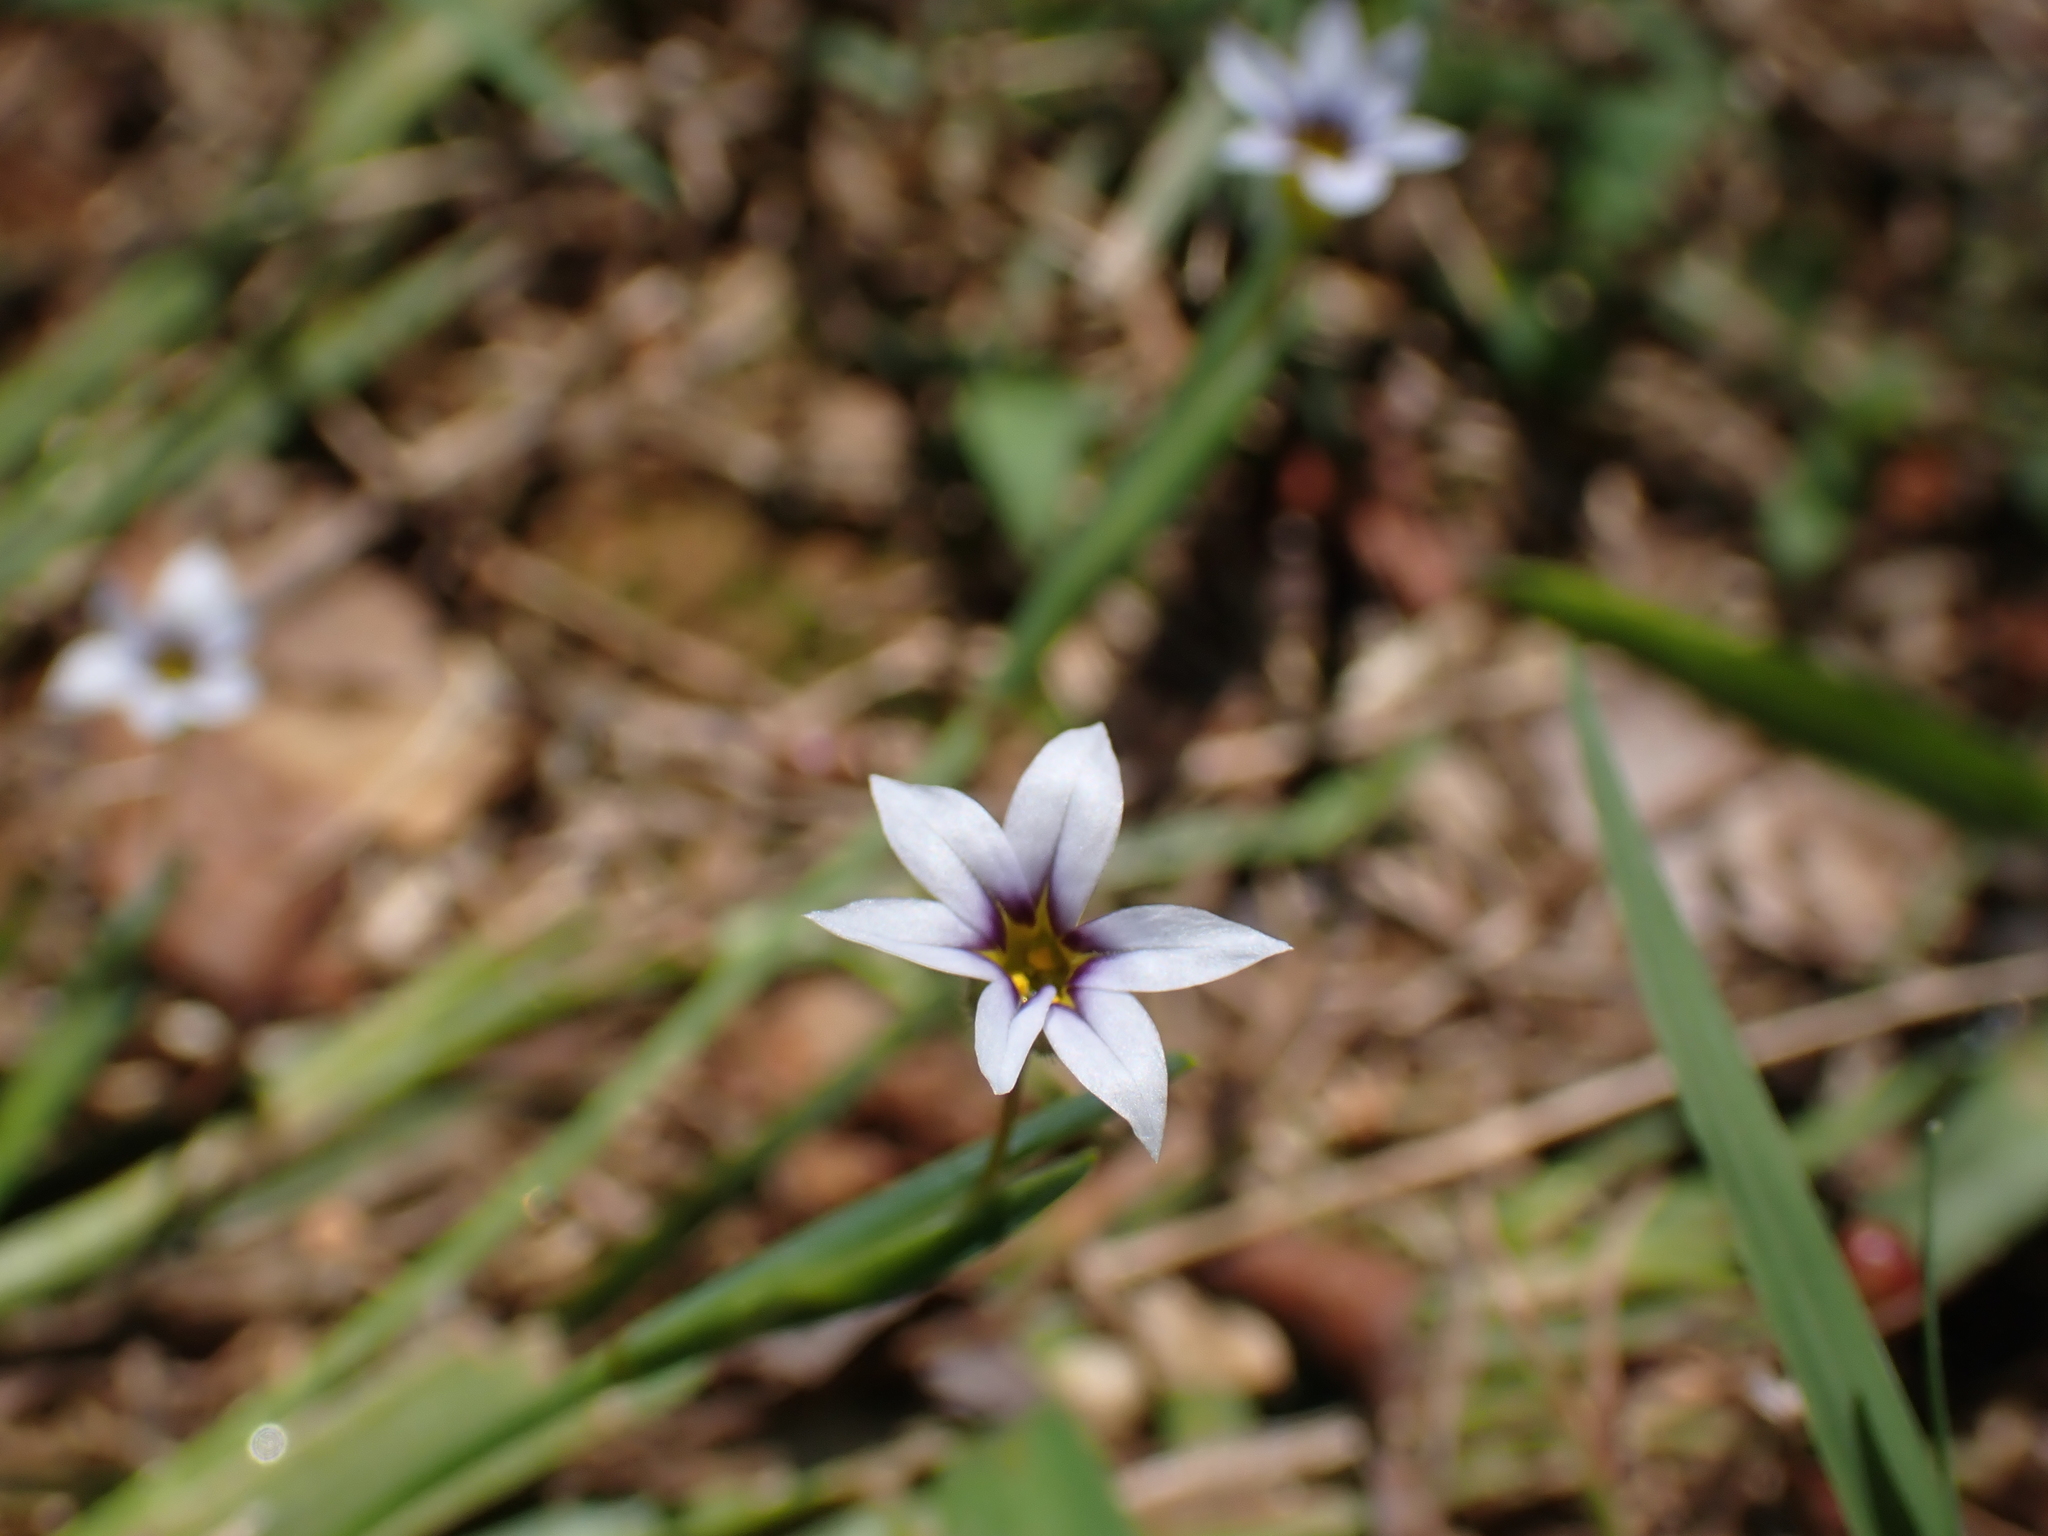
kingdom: Plantae
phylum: Tracheophyta
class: Liliopsida
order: Asparagales
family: Iridaceae
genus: Sisyrinchium
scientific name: Sisyrinchium micranthum
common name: Bermuda pigroot
